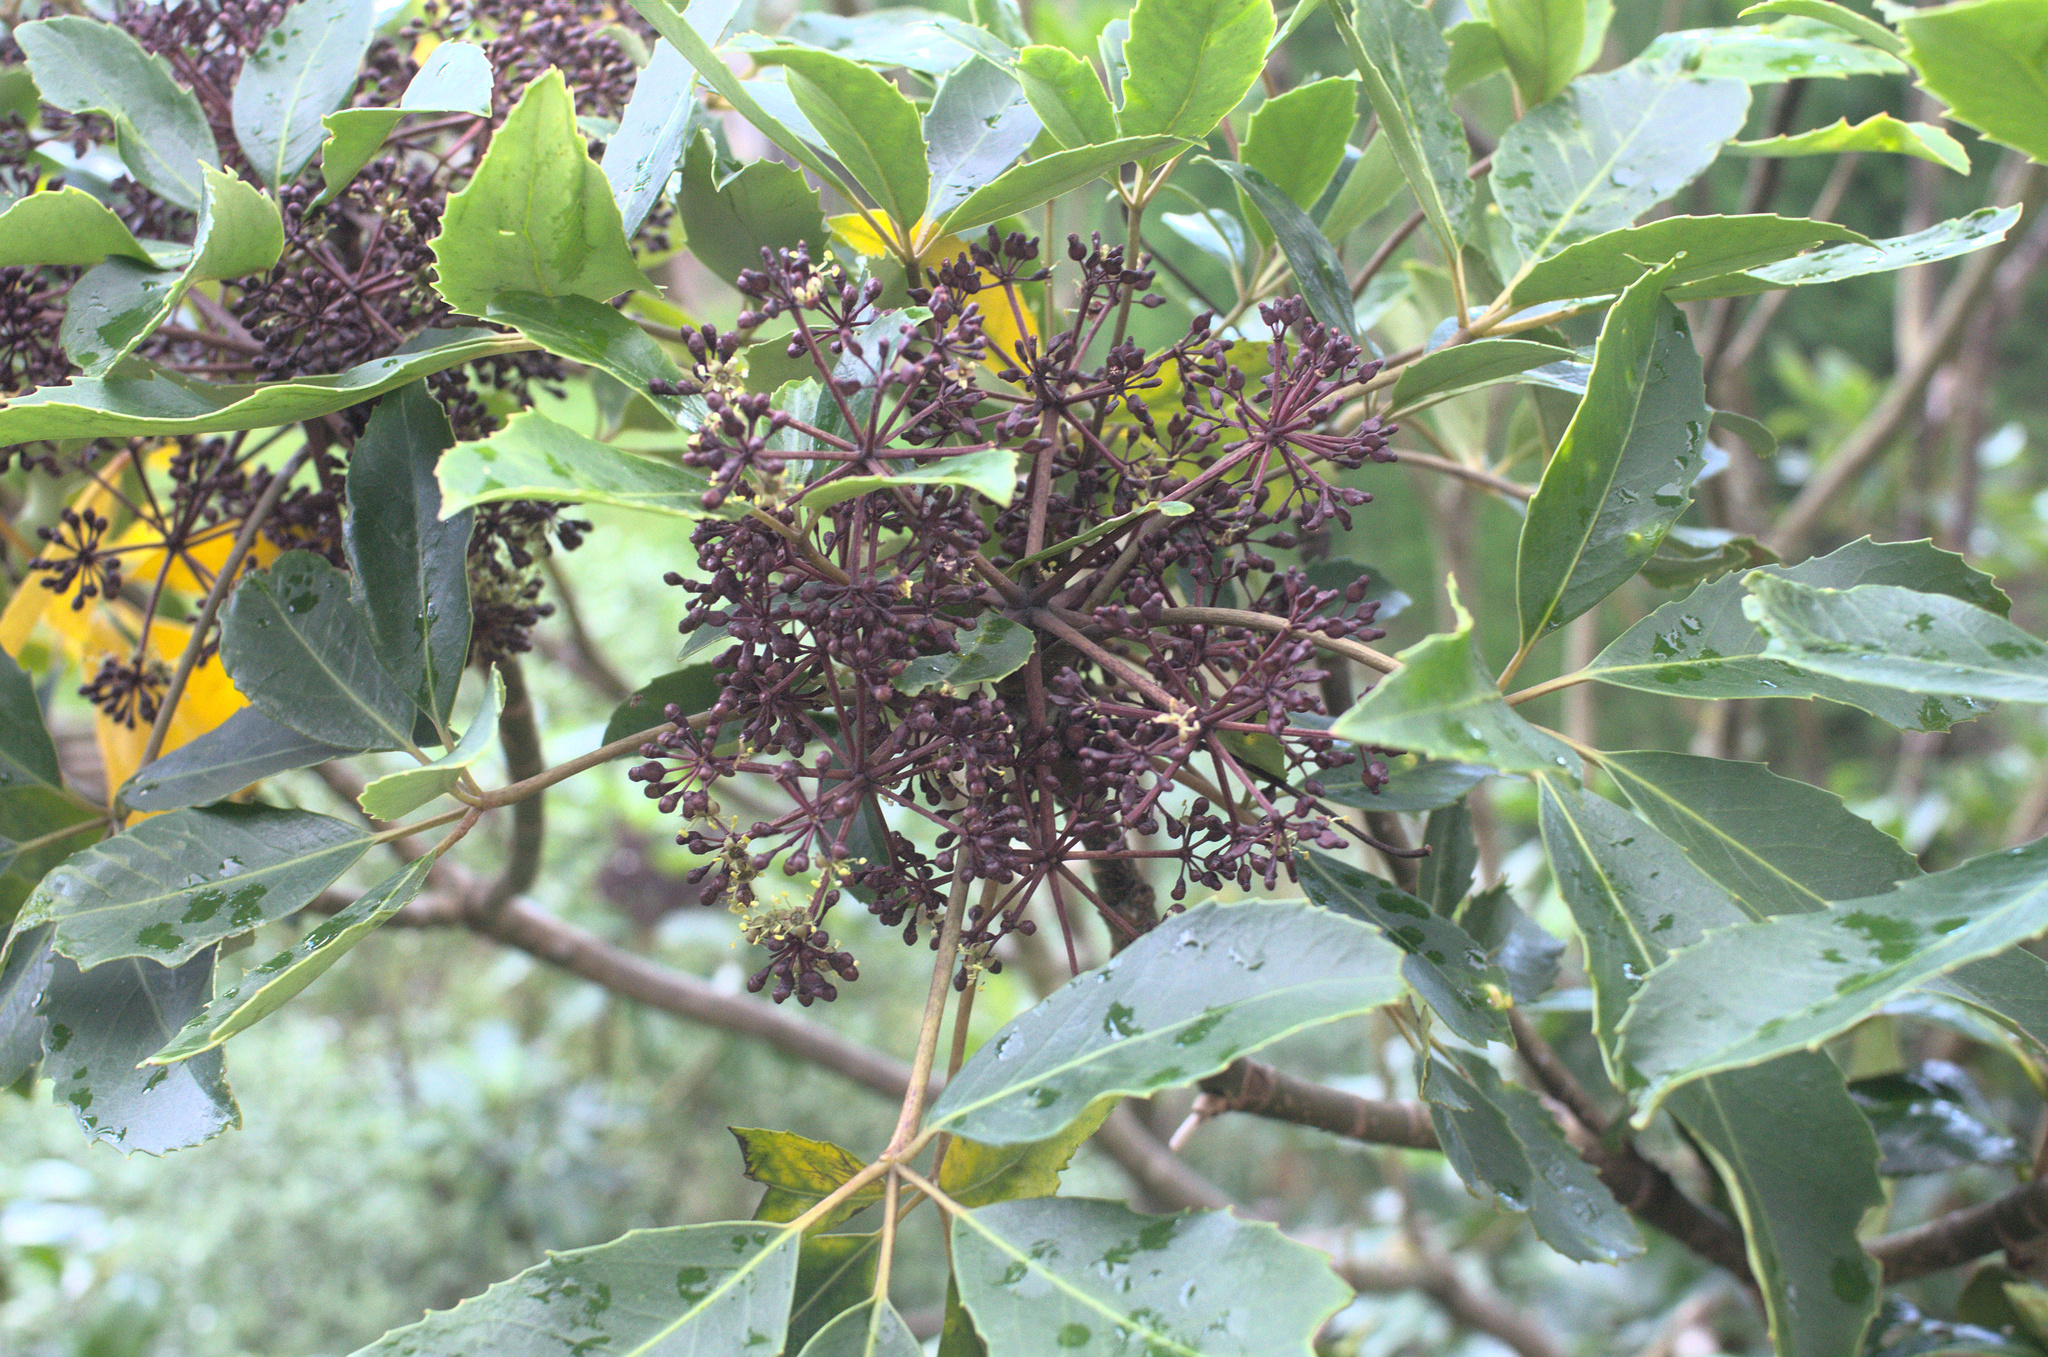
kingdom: Plantae
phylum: Tracheophyta
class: Magnoliopsida
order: Apiales
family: Araliaceae
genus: Neopanax
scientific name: Neopanax arboreus
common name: Five-fingers
